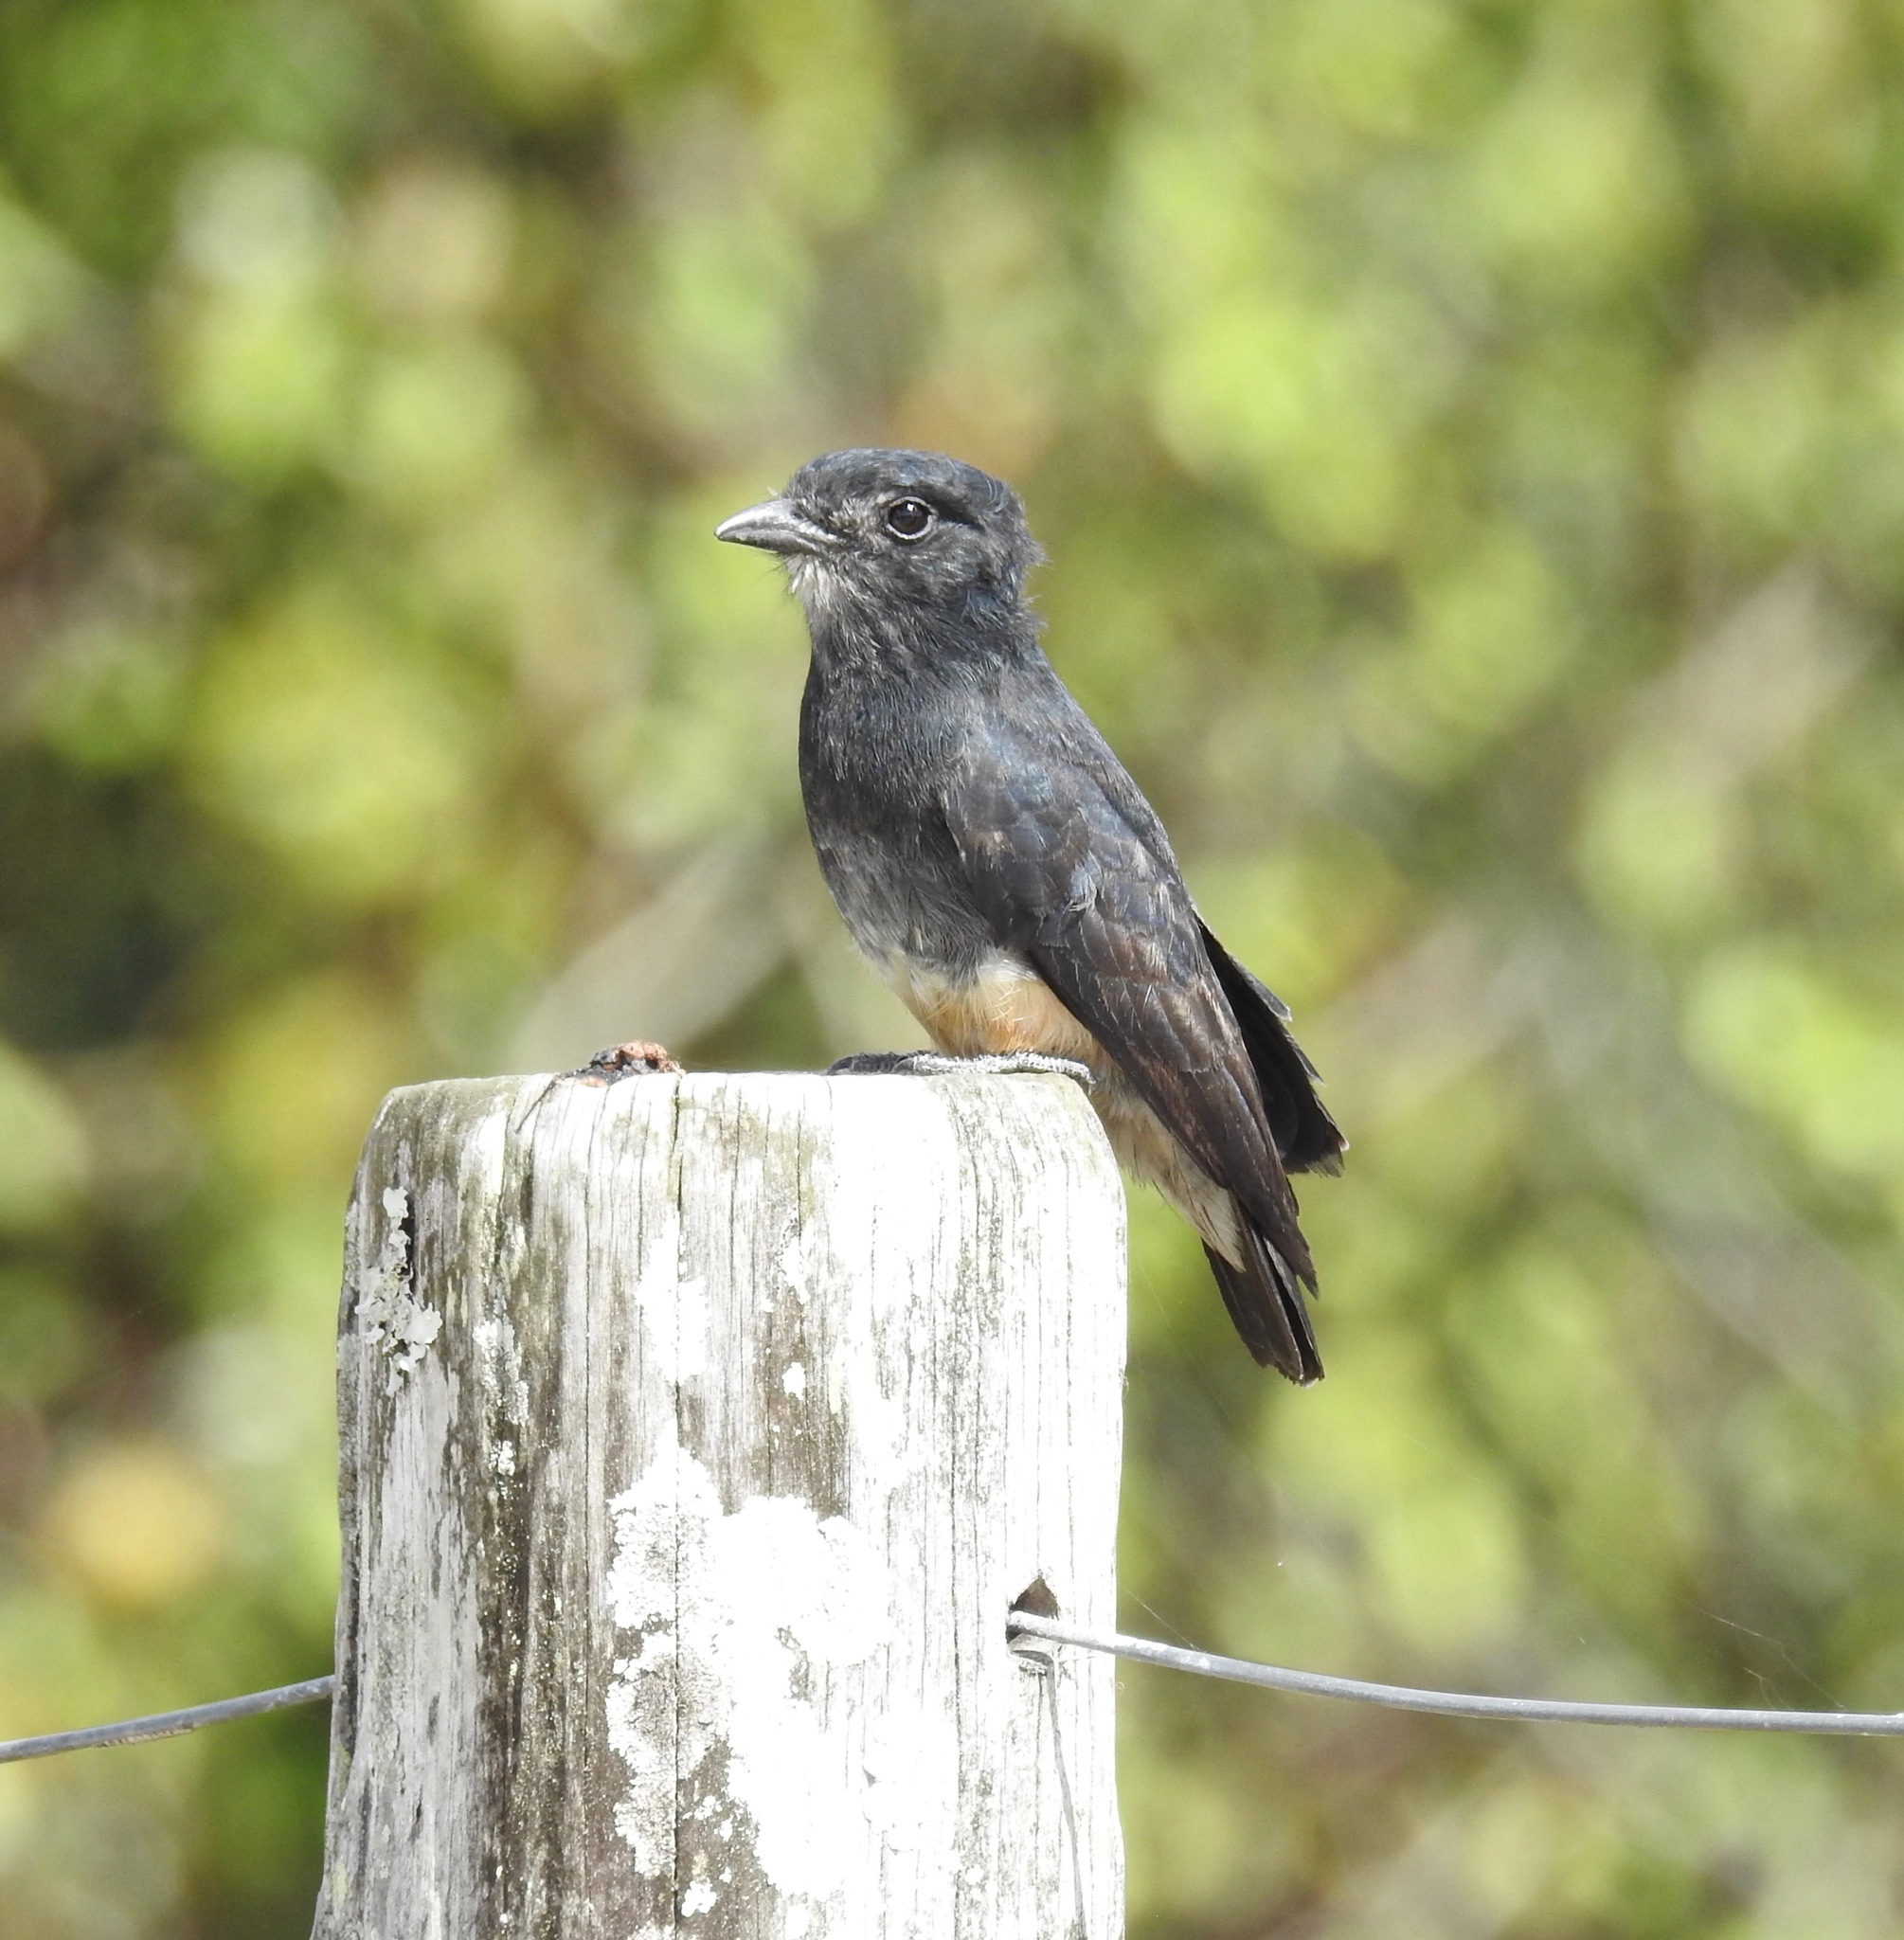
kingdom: Animalia
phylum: Chordata
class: Aves
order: Piciformes
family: Bucconidae
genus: Chelidoptera
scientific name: Chelidoptera tenebrosa
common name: Swallow-winged puffbird
